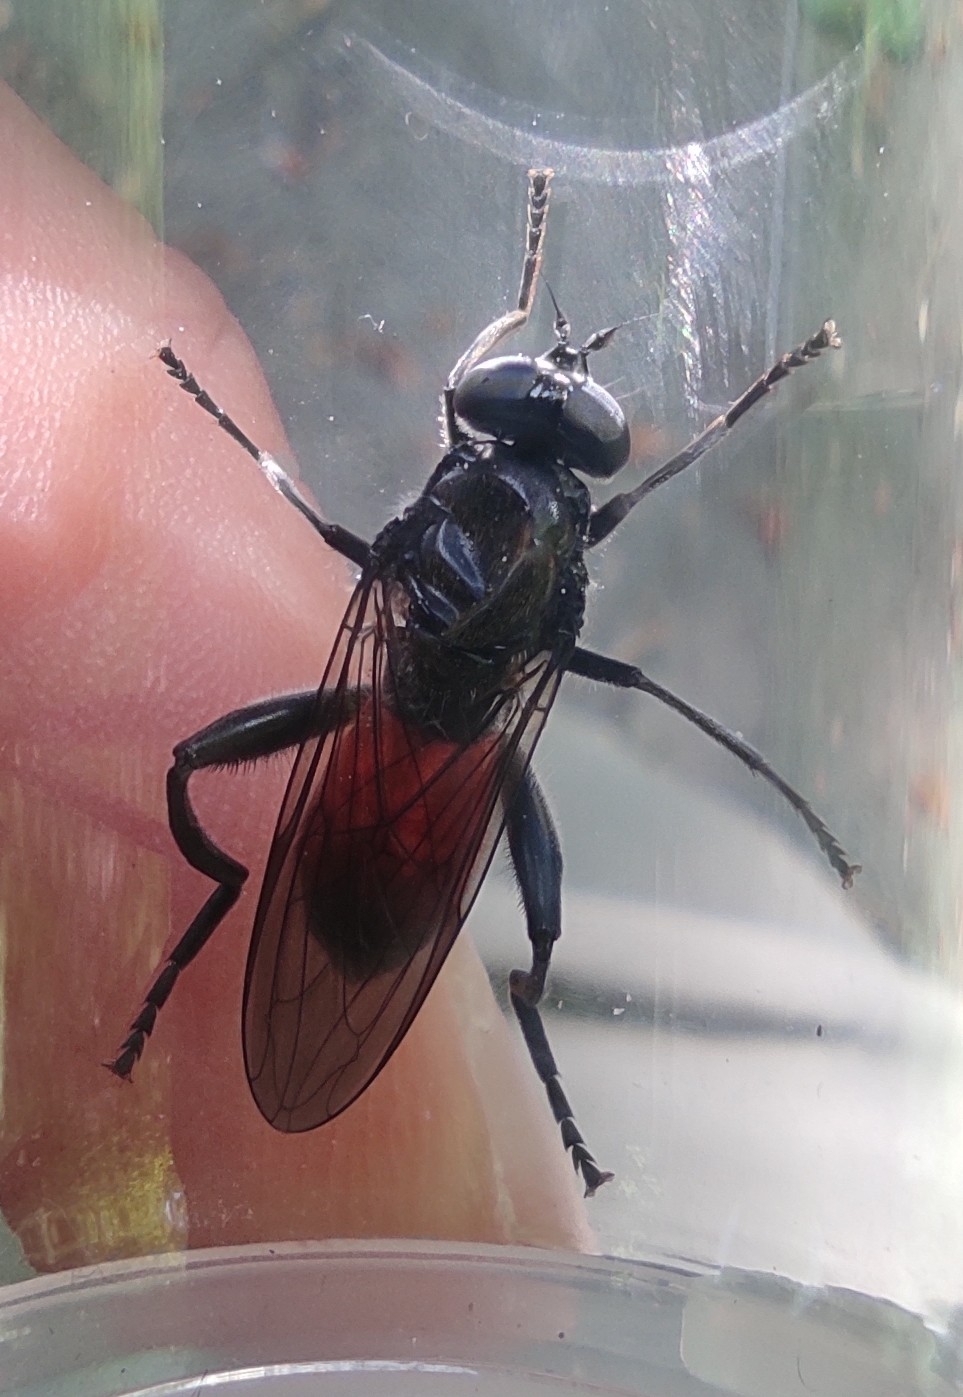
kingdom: Animalia
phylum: Arthropoda
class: Insecta
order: Diptera
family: Syrphidae
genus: Brachypalpoides
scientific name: Brachypalpoides lenta
